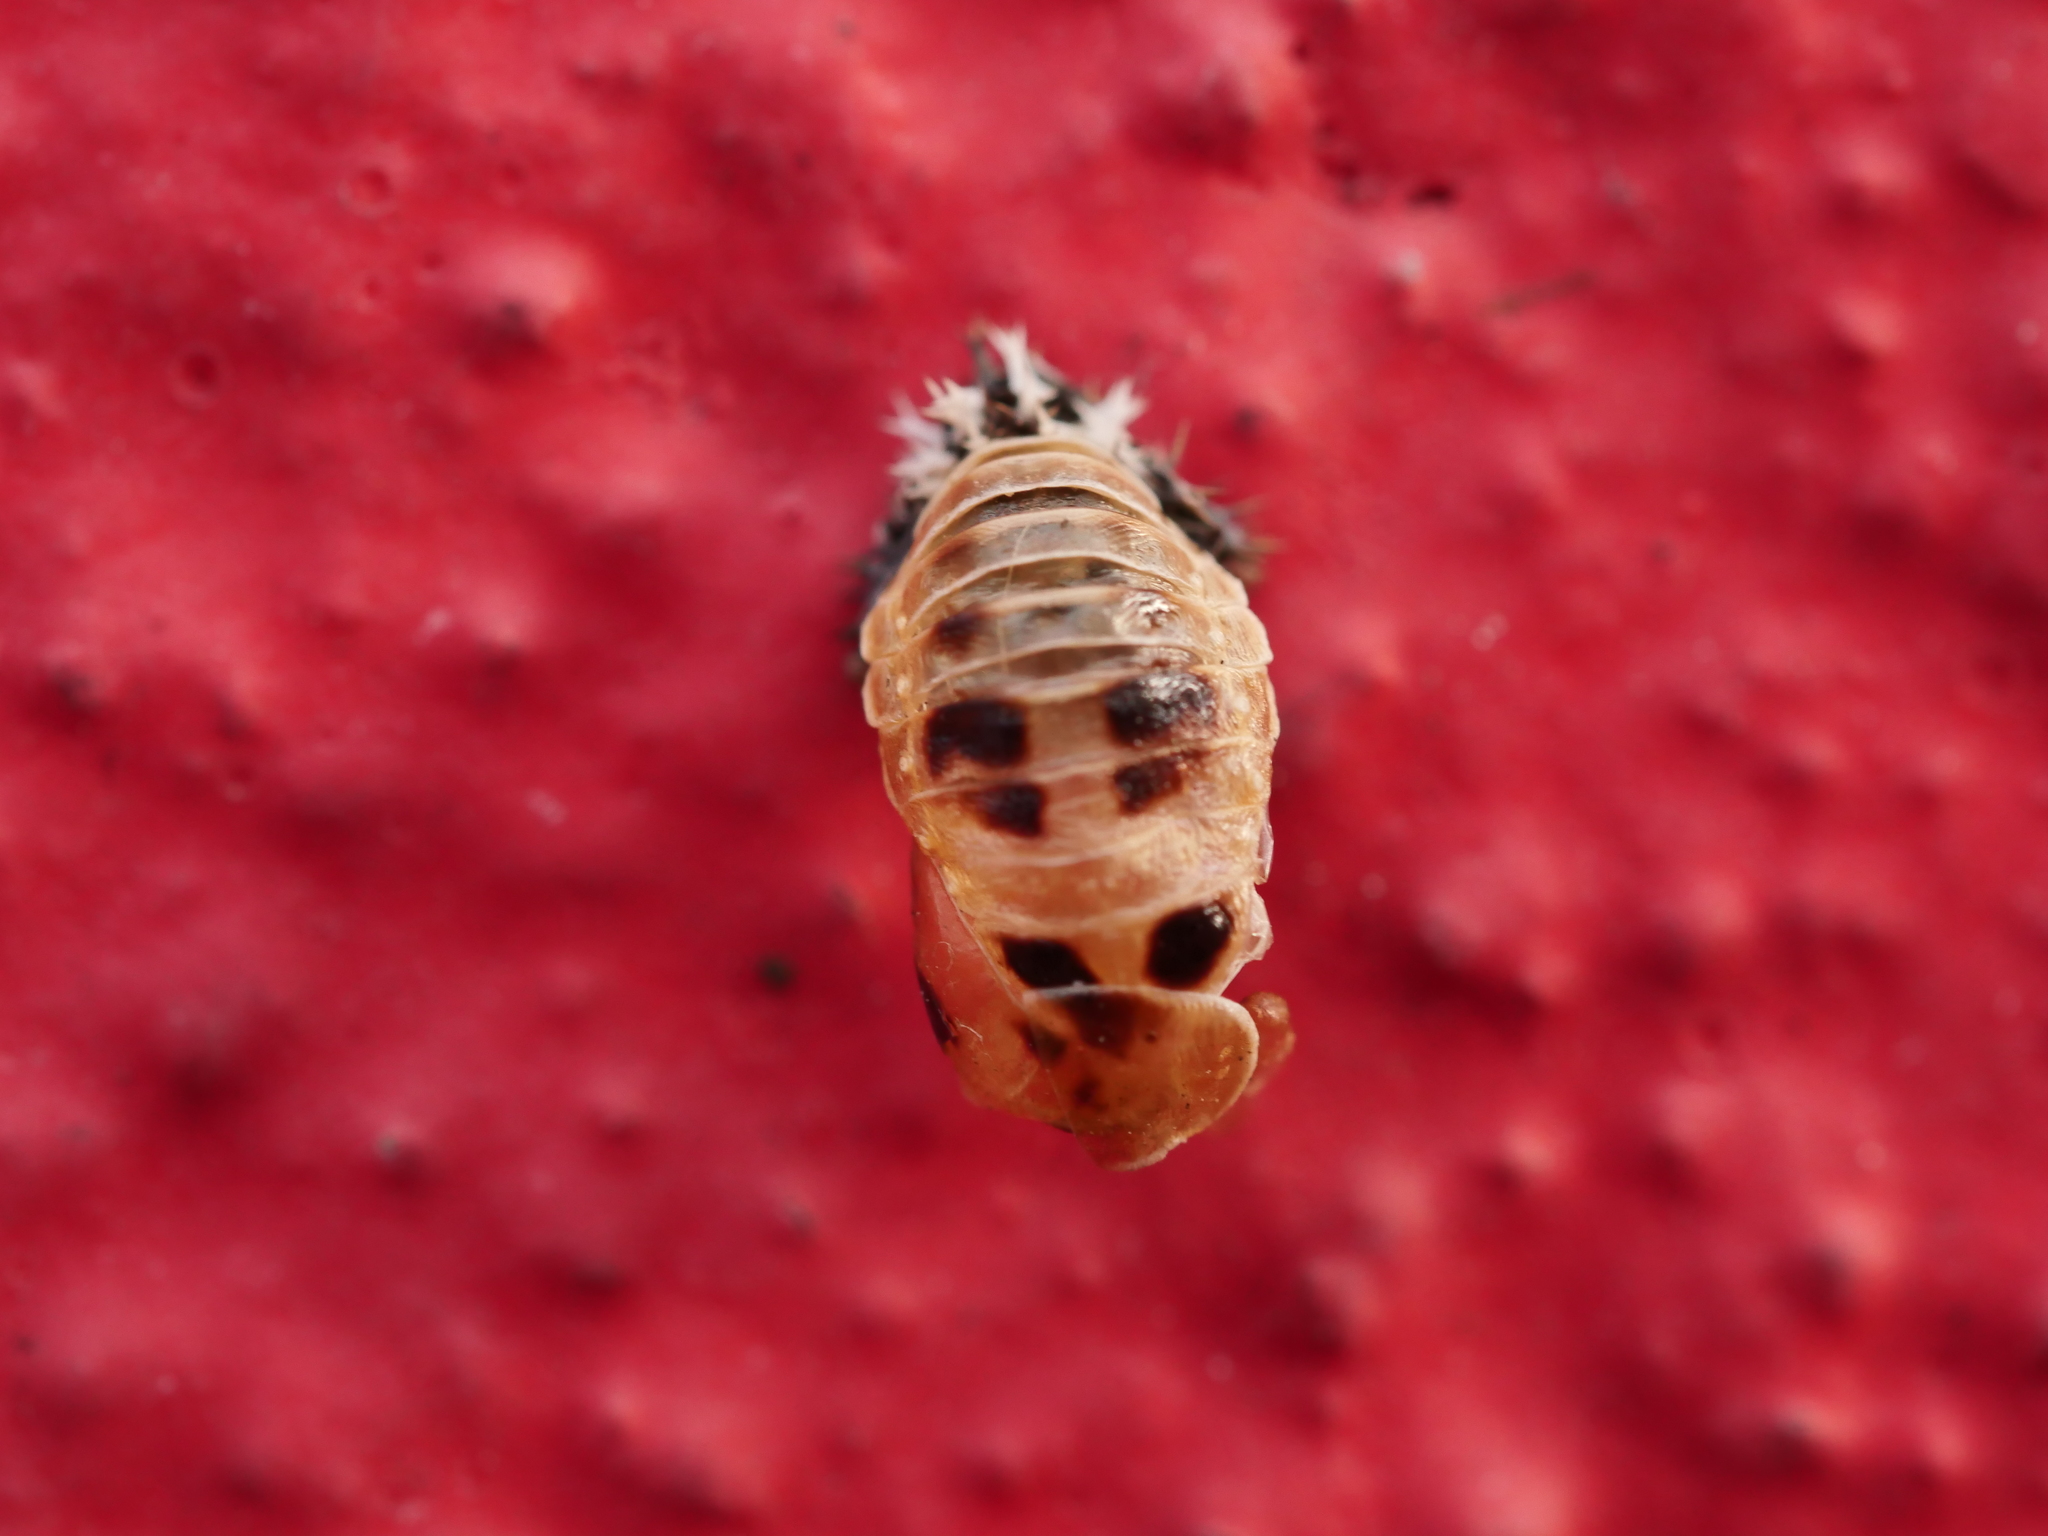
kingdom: Animalia
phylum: Arthropoda
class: Insecta
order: Coleoptera
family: Coccinellidae
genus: Harmonia
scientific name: Harmonia axyridis
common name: Harlequin ladybird
